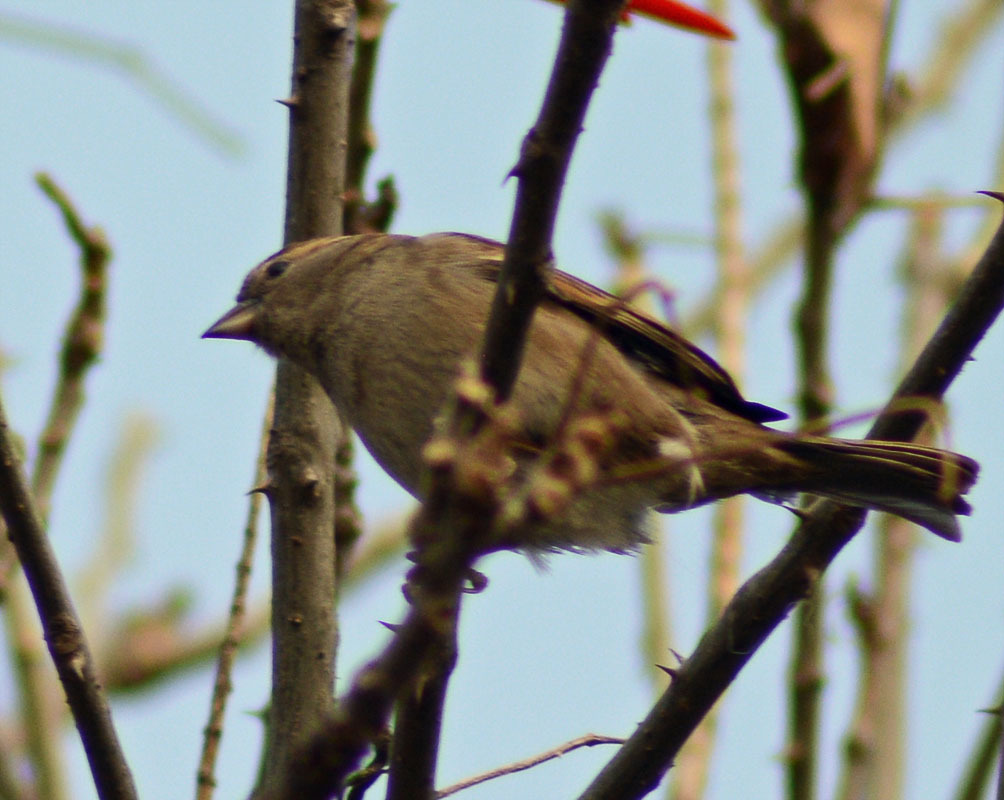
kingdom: Animalia
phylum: Chordata
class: Aves
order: Passeriformes
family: Passeridae
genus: Passer
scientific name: Passer domesticus
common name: House sparrow
